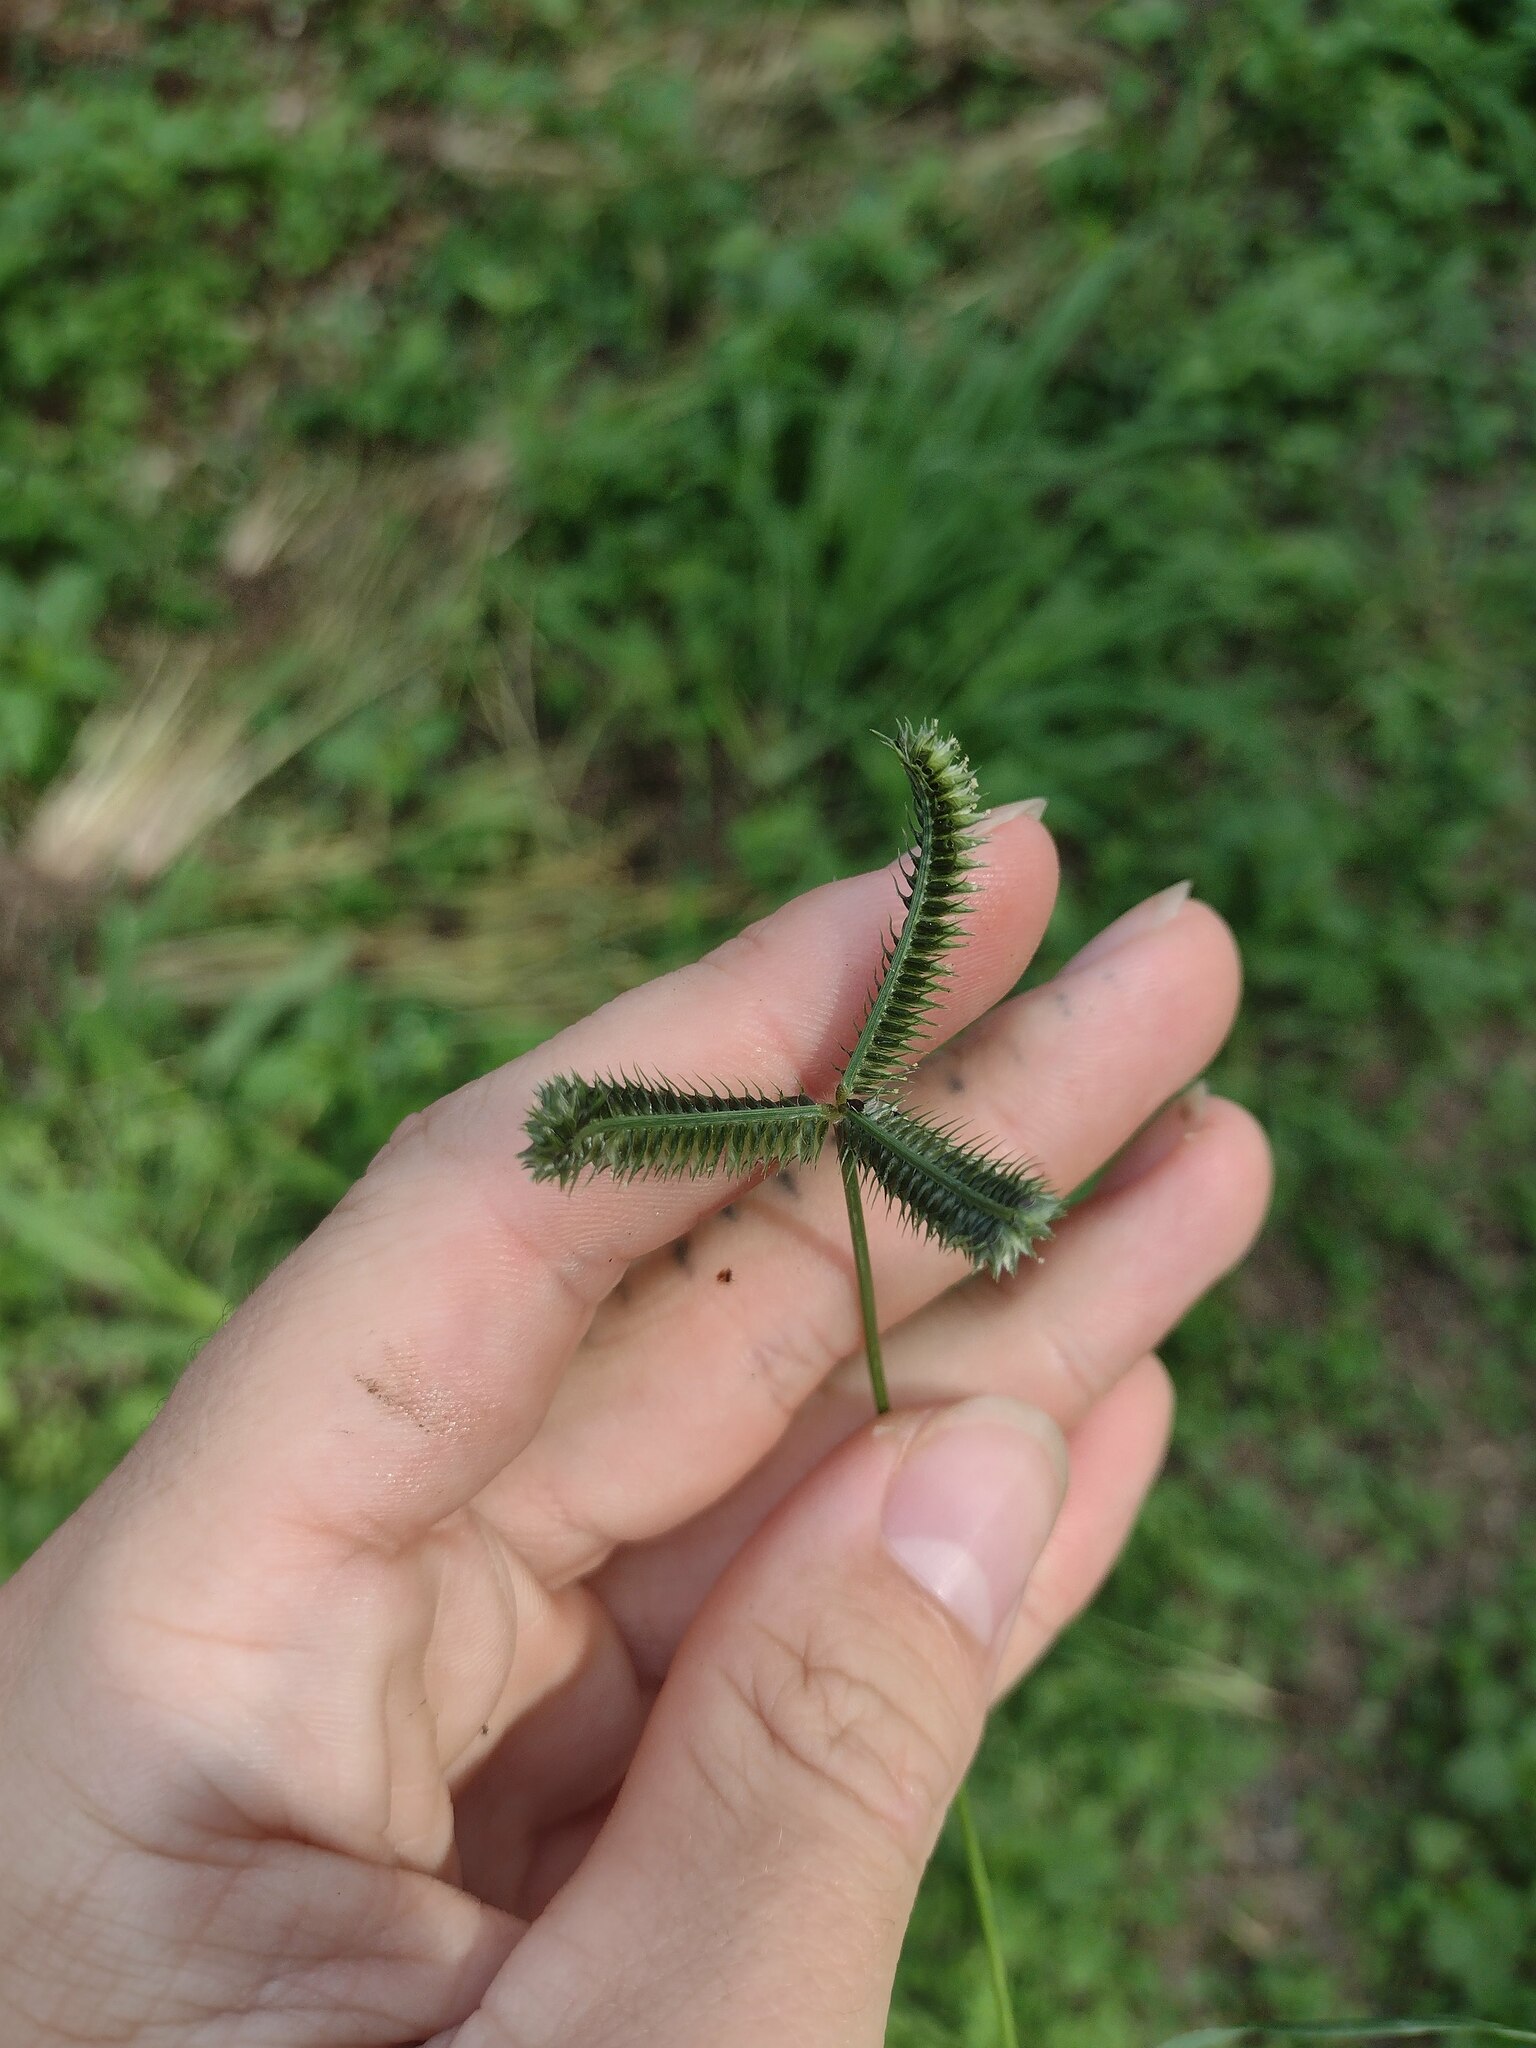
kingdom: Plantae
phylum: Tracheophyta
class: Liliopsida
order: Poales
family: Poaceae
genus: Dactyloctenium
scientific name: Dactyloctenium aegyptium
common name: Egyptian grass
